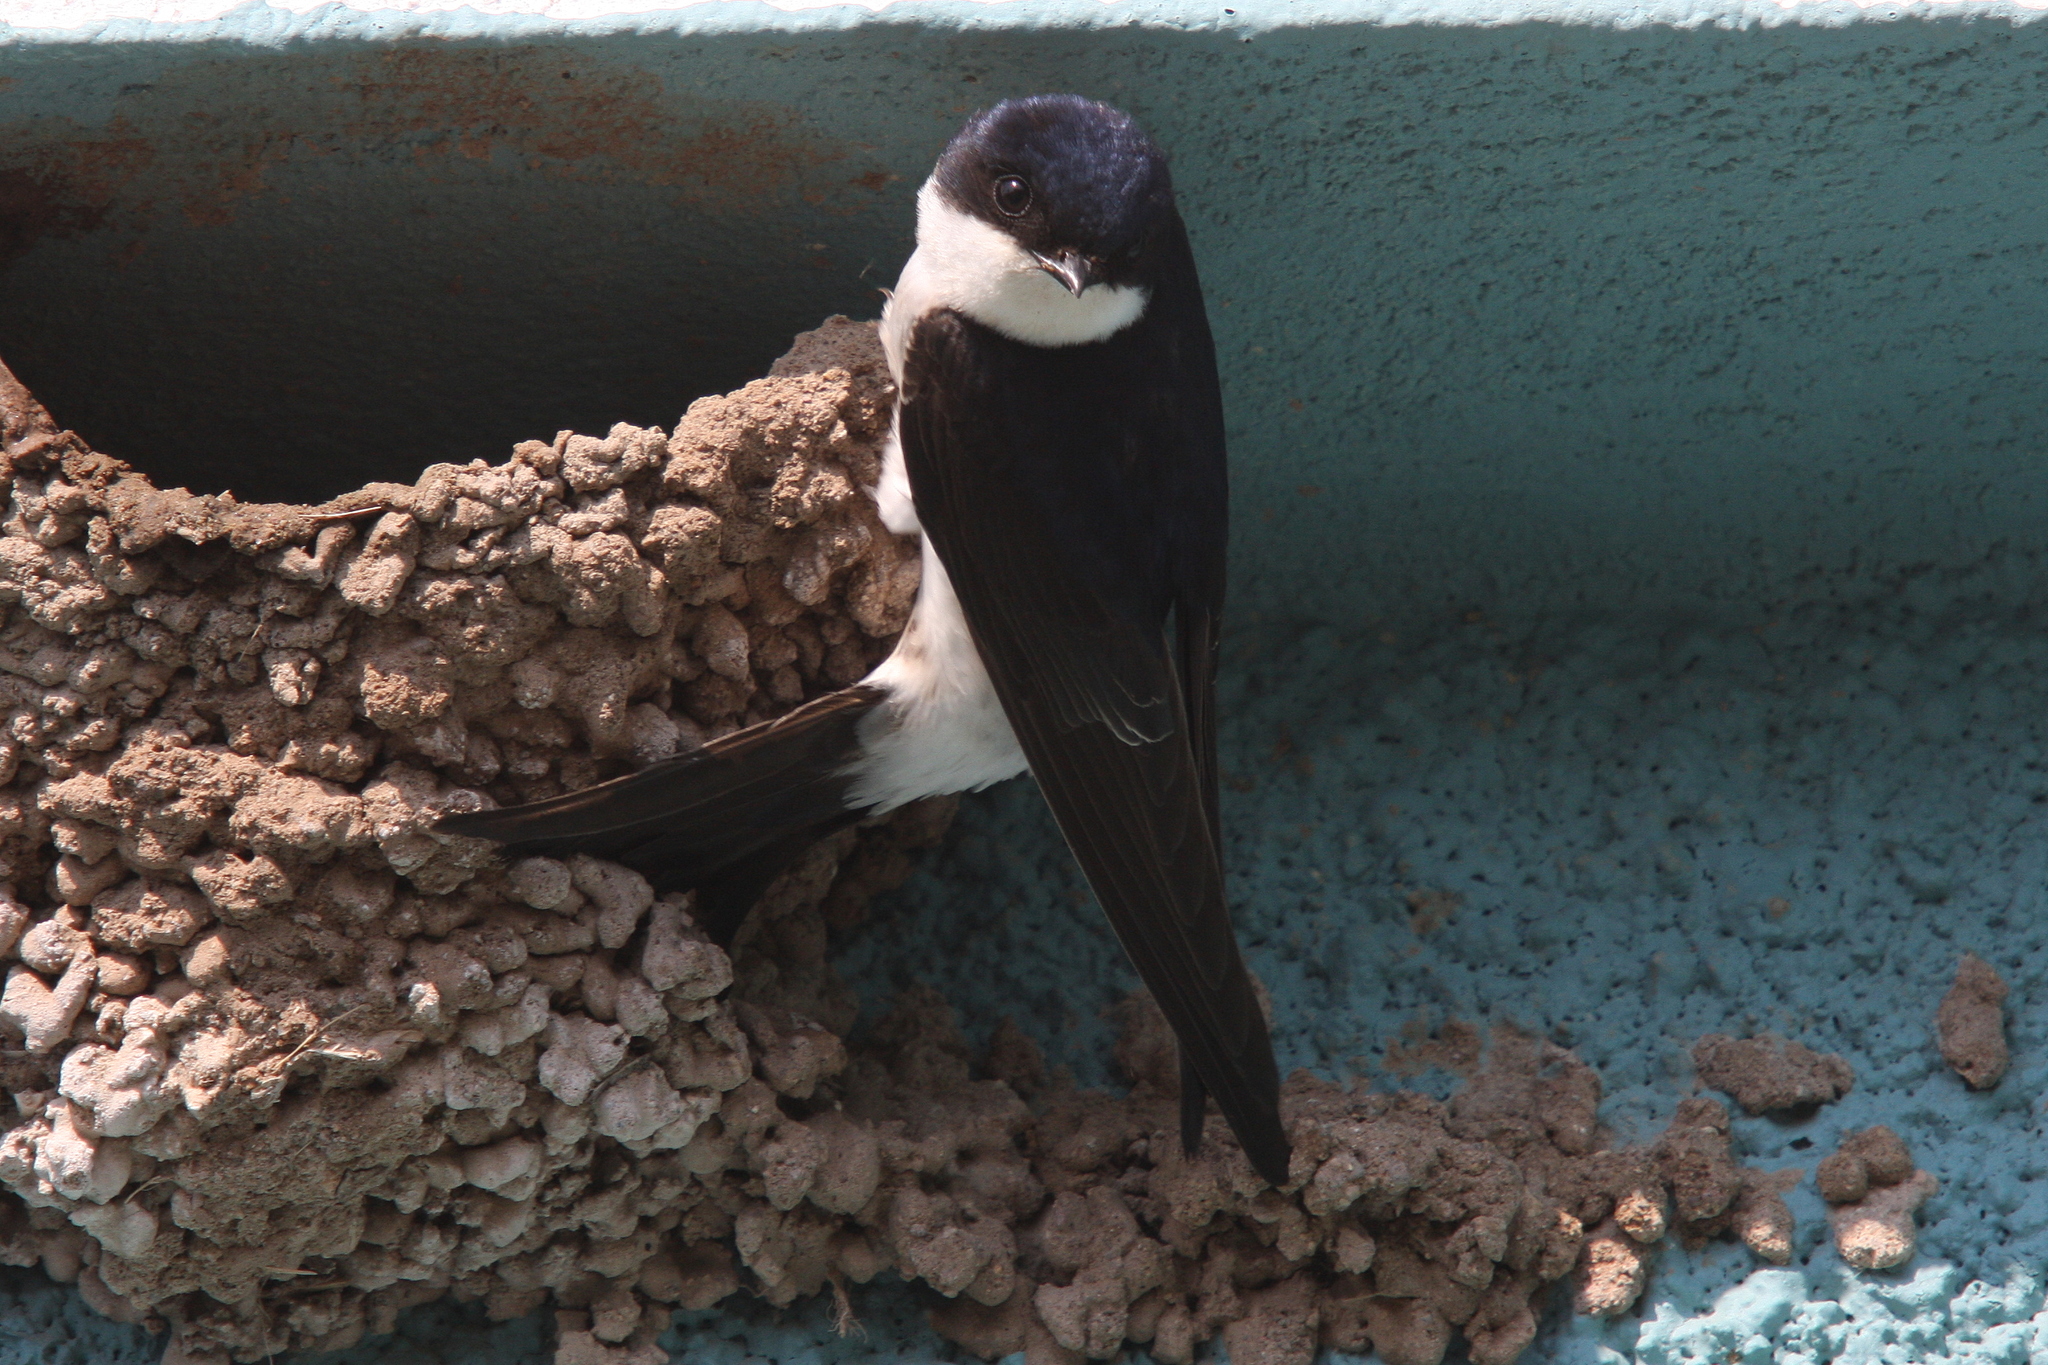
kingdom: Animalia
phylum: Chordata
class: Aves
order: Passeriformes
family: Hirundinidae
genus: Delichon
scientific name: Delichon urbicum
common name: Common house martin
